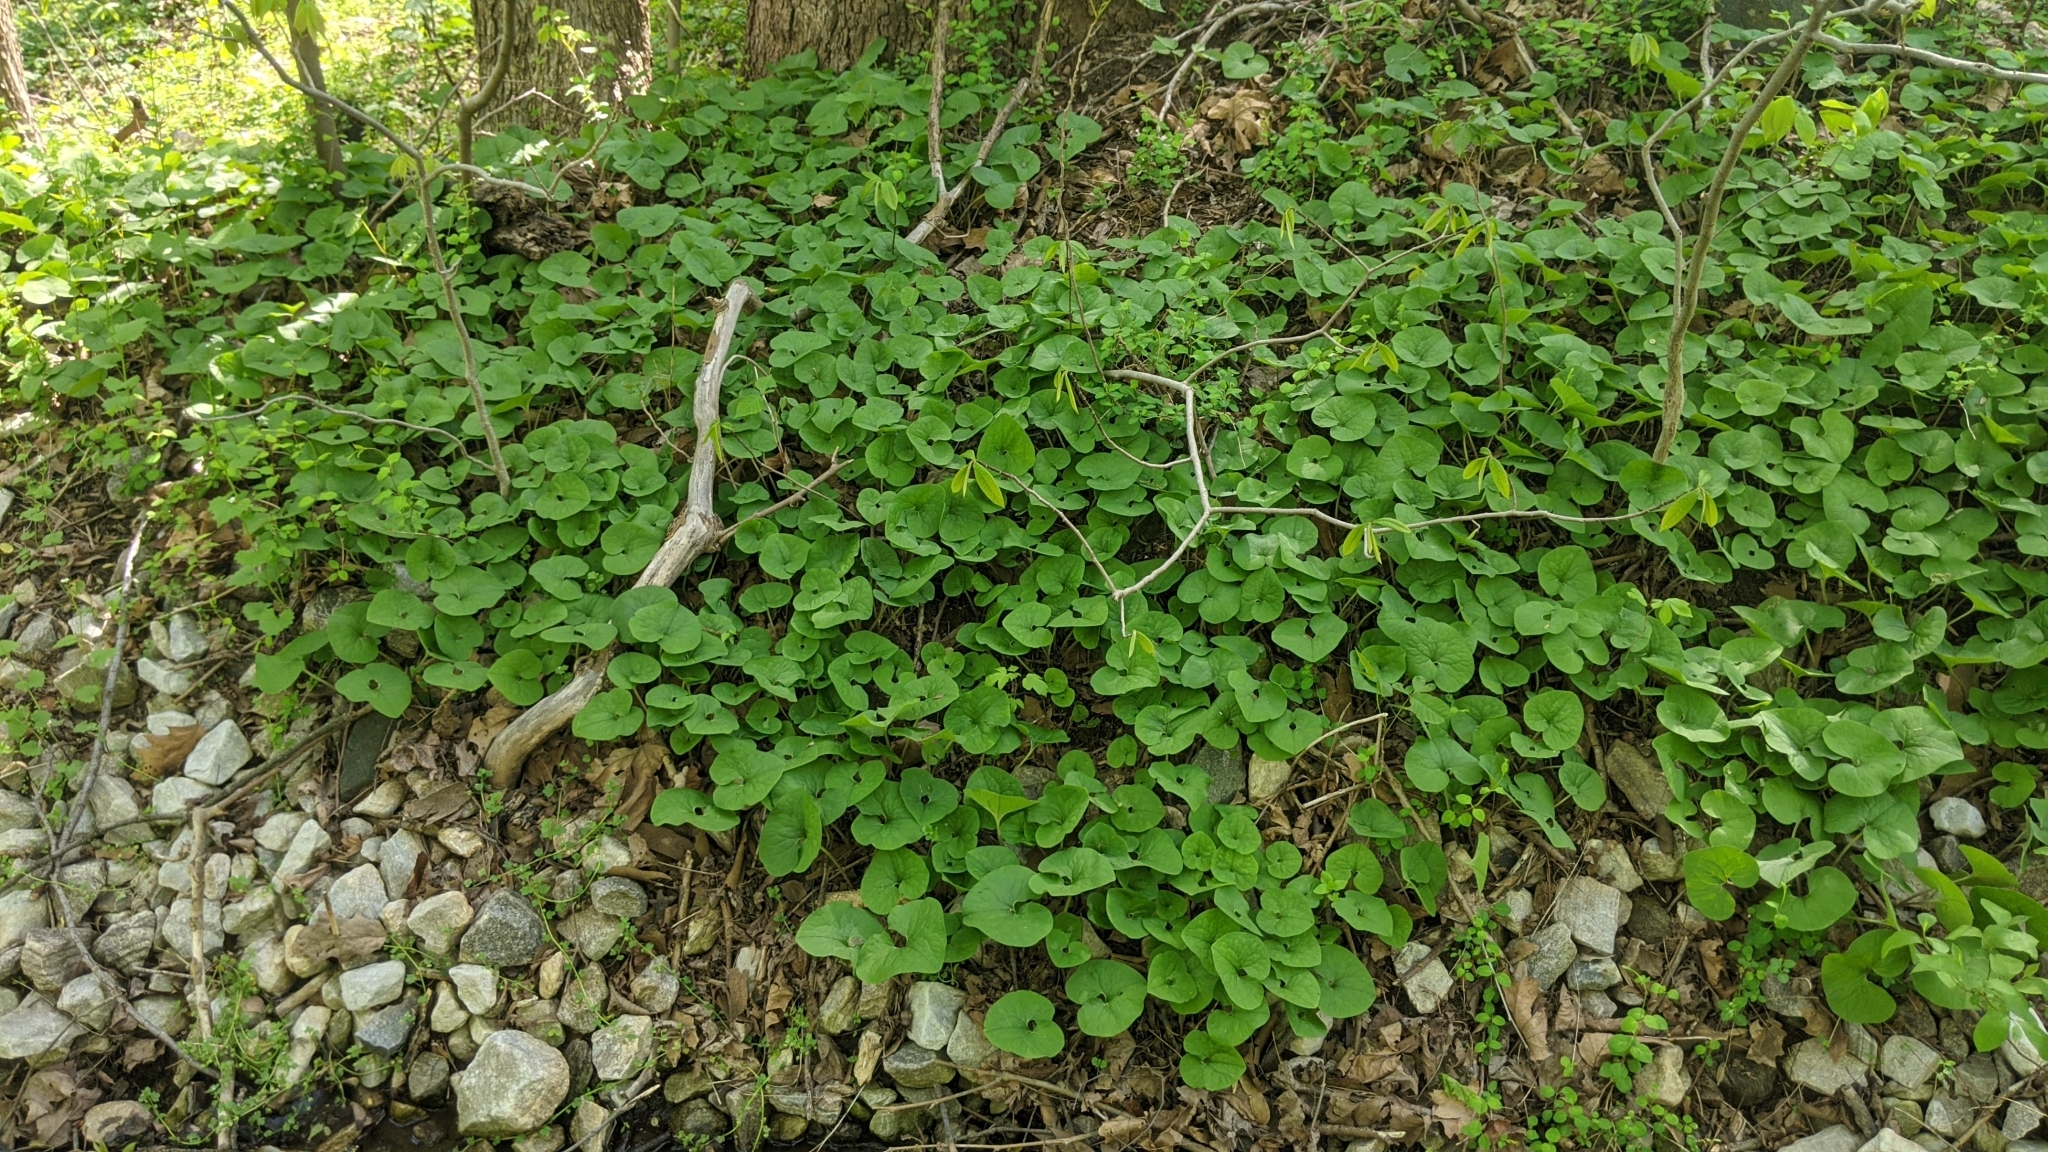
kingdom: Plantae
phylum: Tracheophyta
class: Magnoliopsida
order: Piperales
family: Aristolochiaceae
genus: Asarum
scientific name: Asarum canadense
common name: Wild ginger
